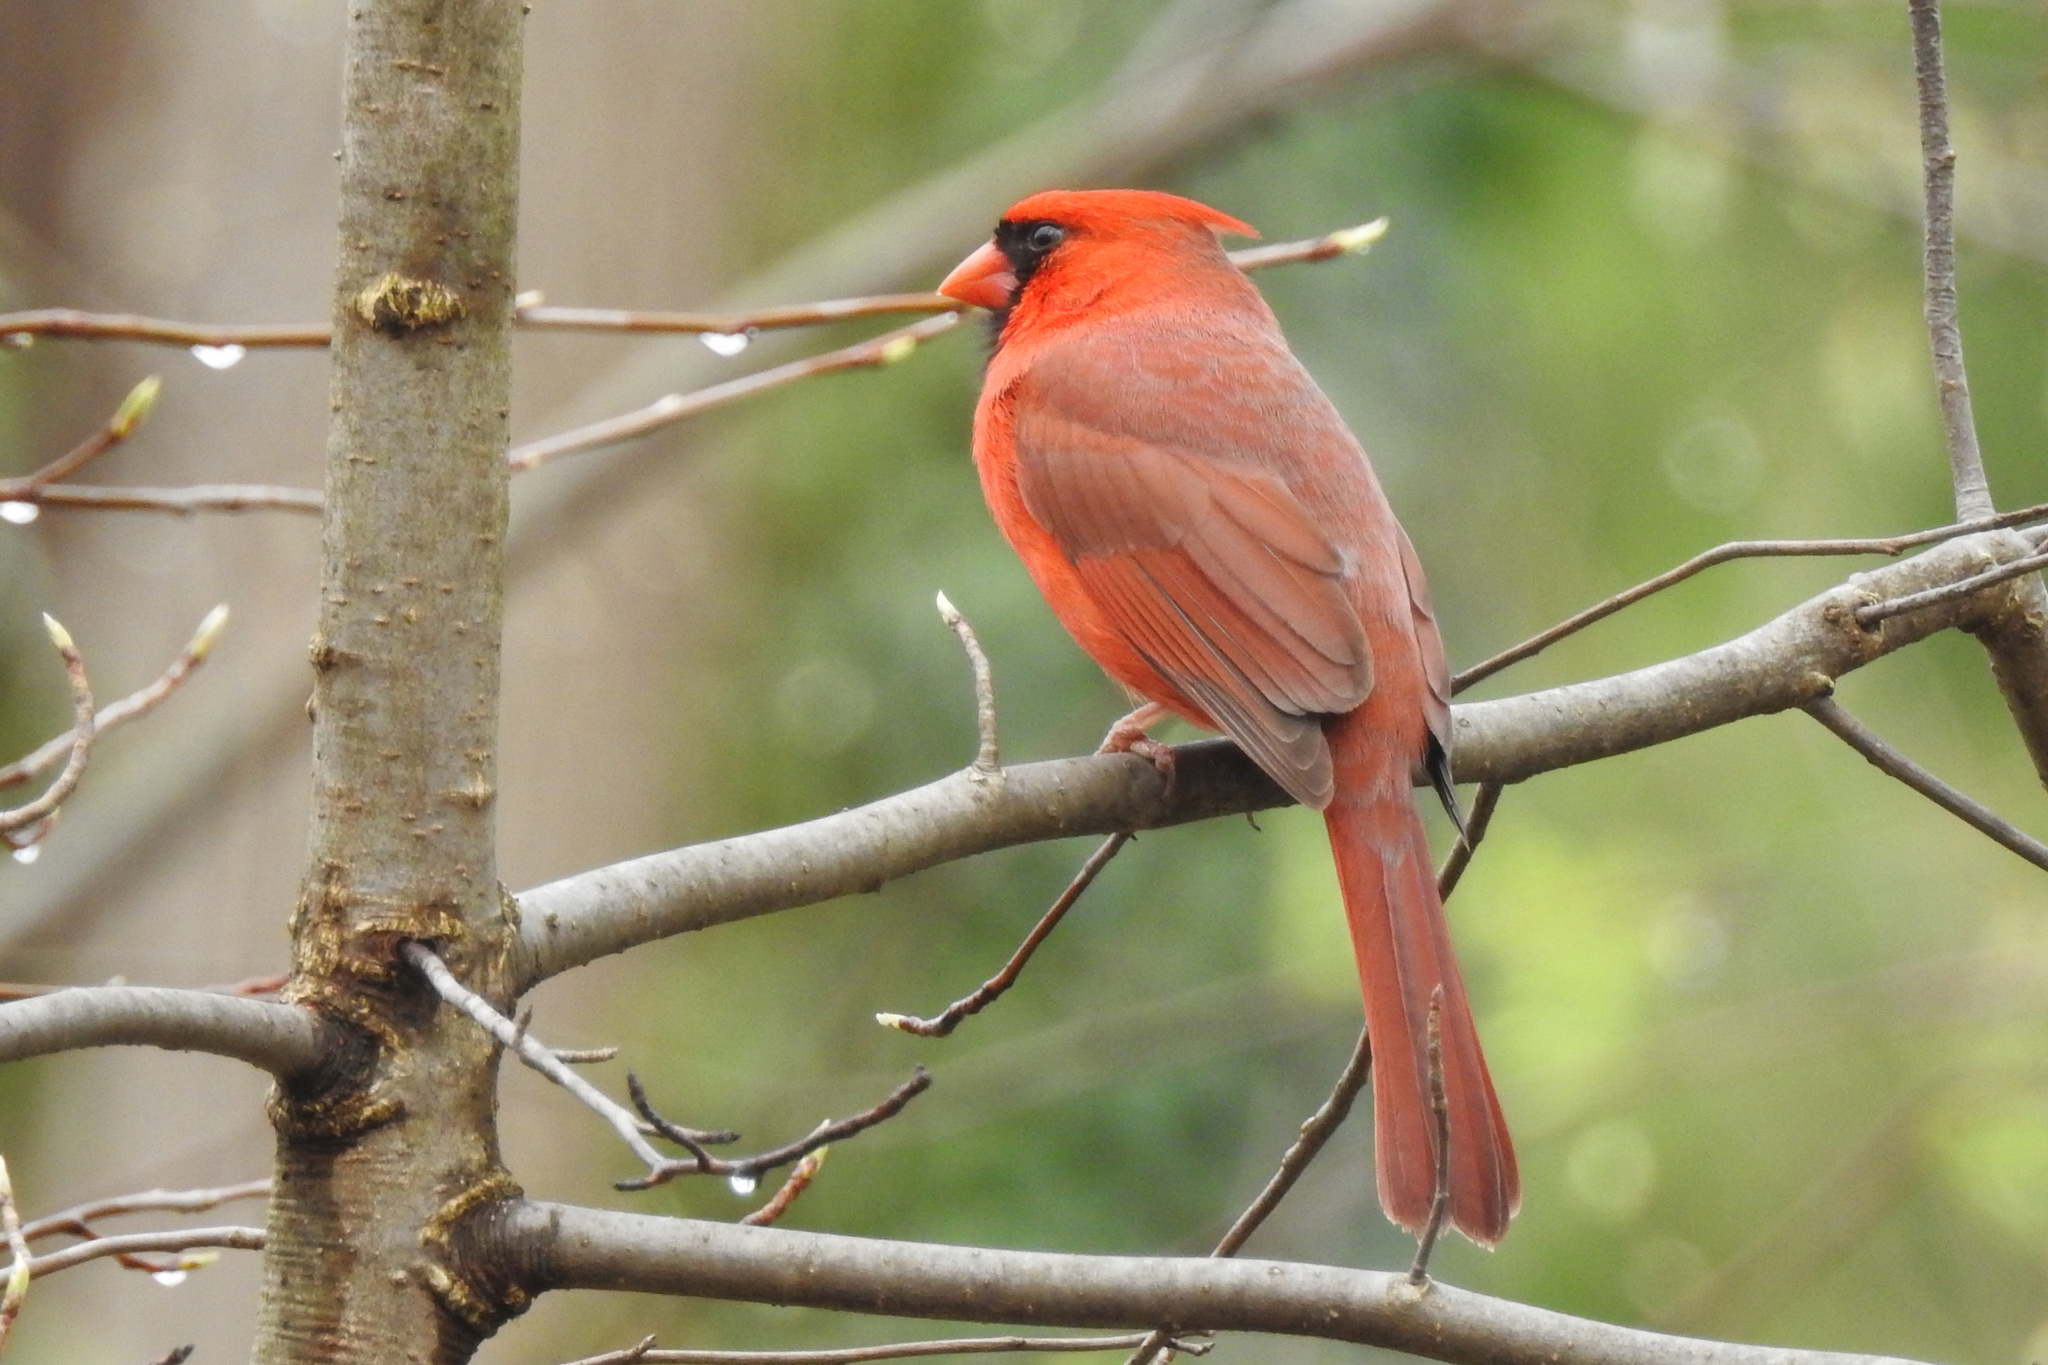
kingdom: Animalia
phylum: Chordata
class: Aves
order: Passeriformes
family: Cardinalidae
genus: Cardinalis
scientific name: Cardinalis cardinalis
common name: Northern cardinal
